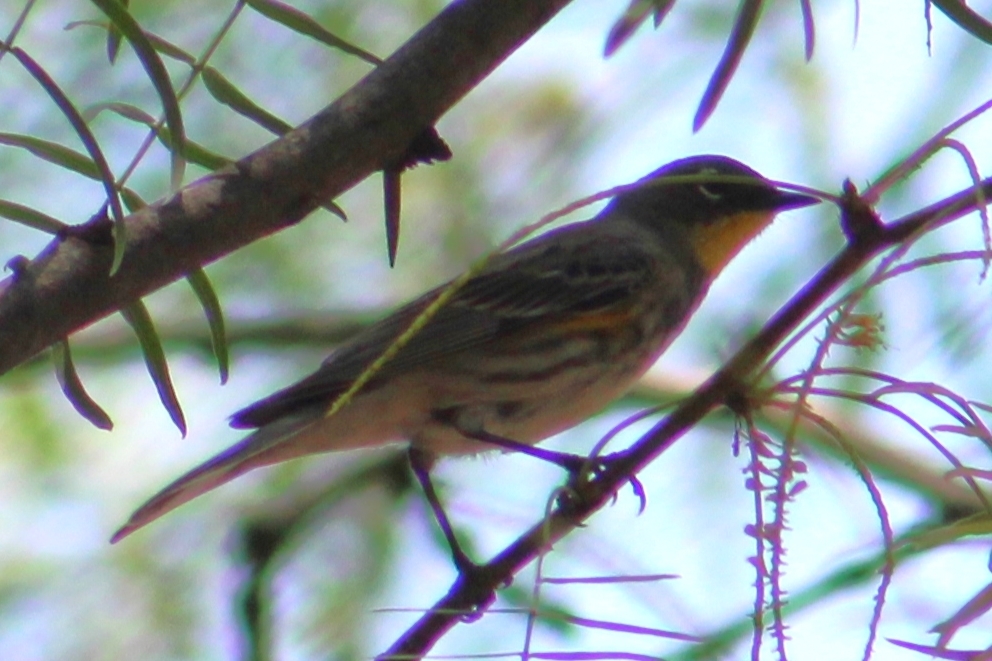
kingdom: Animalia
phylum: Chordata
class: Aves
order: Passeriformes
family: Parulidae
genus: Setophaga
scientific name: Setophaga coronata
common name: Myrtle warbler
